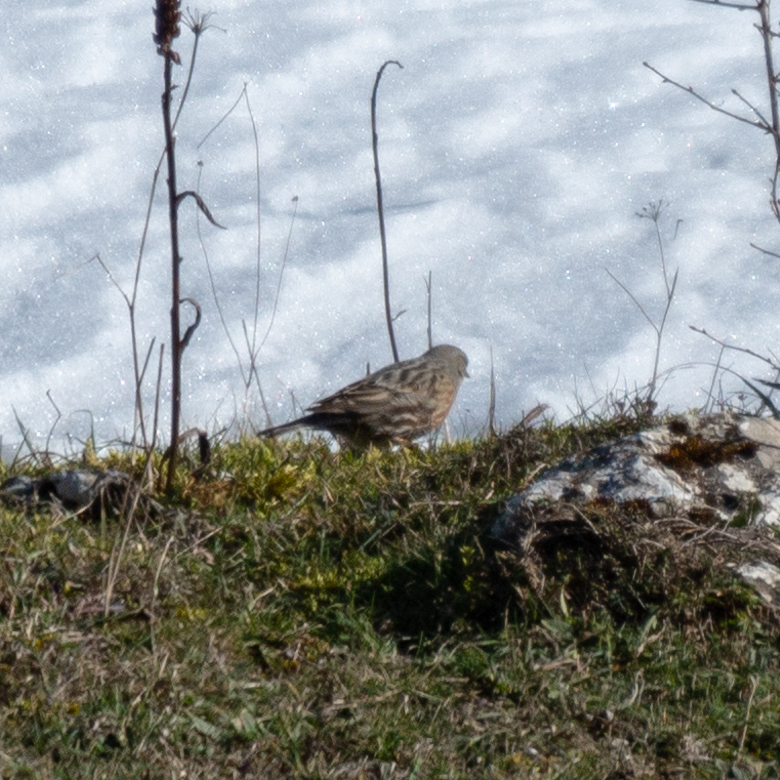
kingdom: Animalia
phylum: Chordata
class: Aves
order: Passeriformes
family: Prunellidae
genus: Prunella
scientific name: Prunella collaris
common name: Alpine accentor
